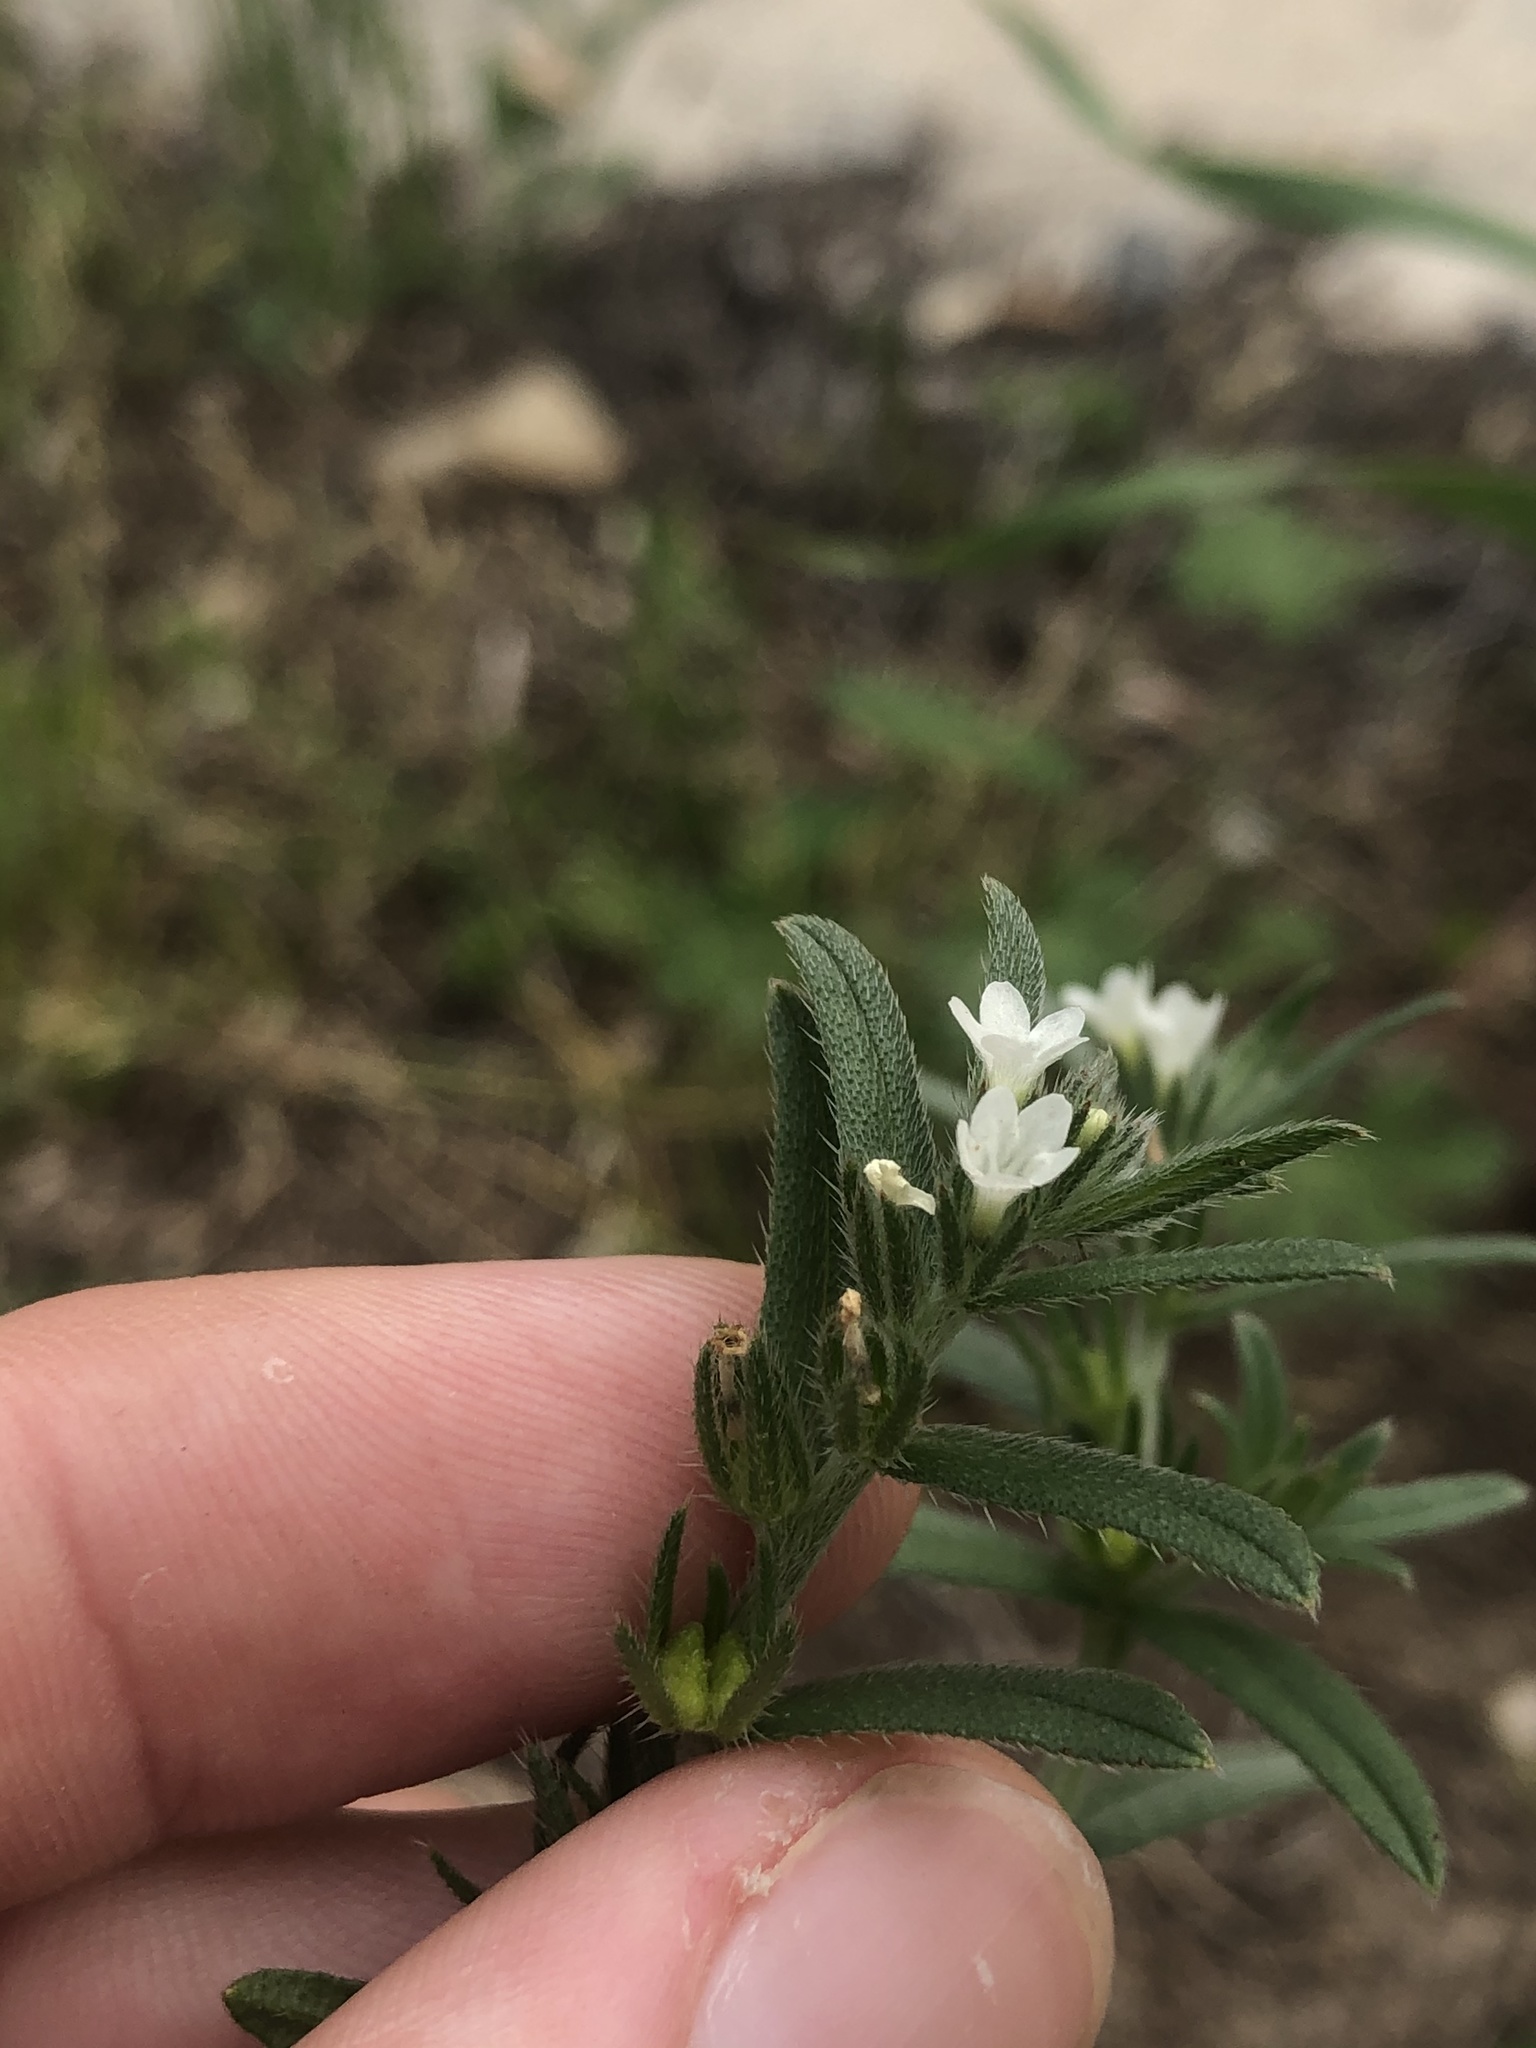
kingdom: Plantae
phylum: Tracheophyta
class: Magnoliopsida
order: Boraginales
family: Boraginaceae
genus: Buglossoides
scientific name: Buglossoides arvensis
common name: Corn gromwell
